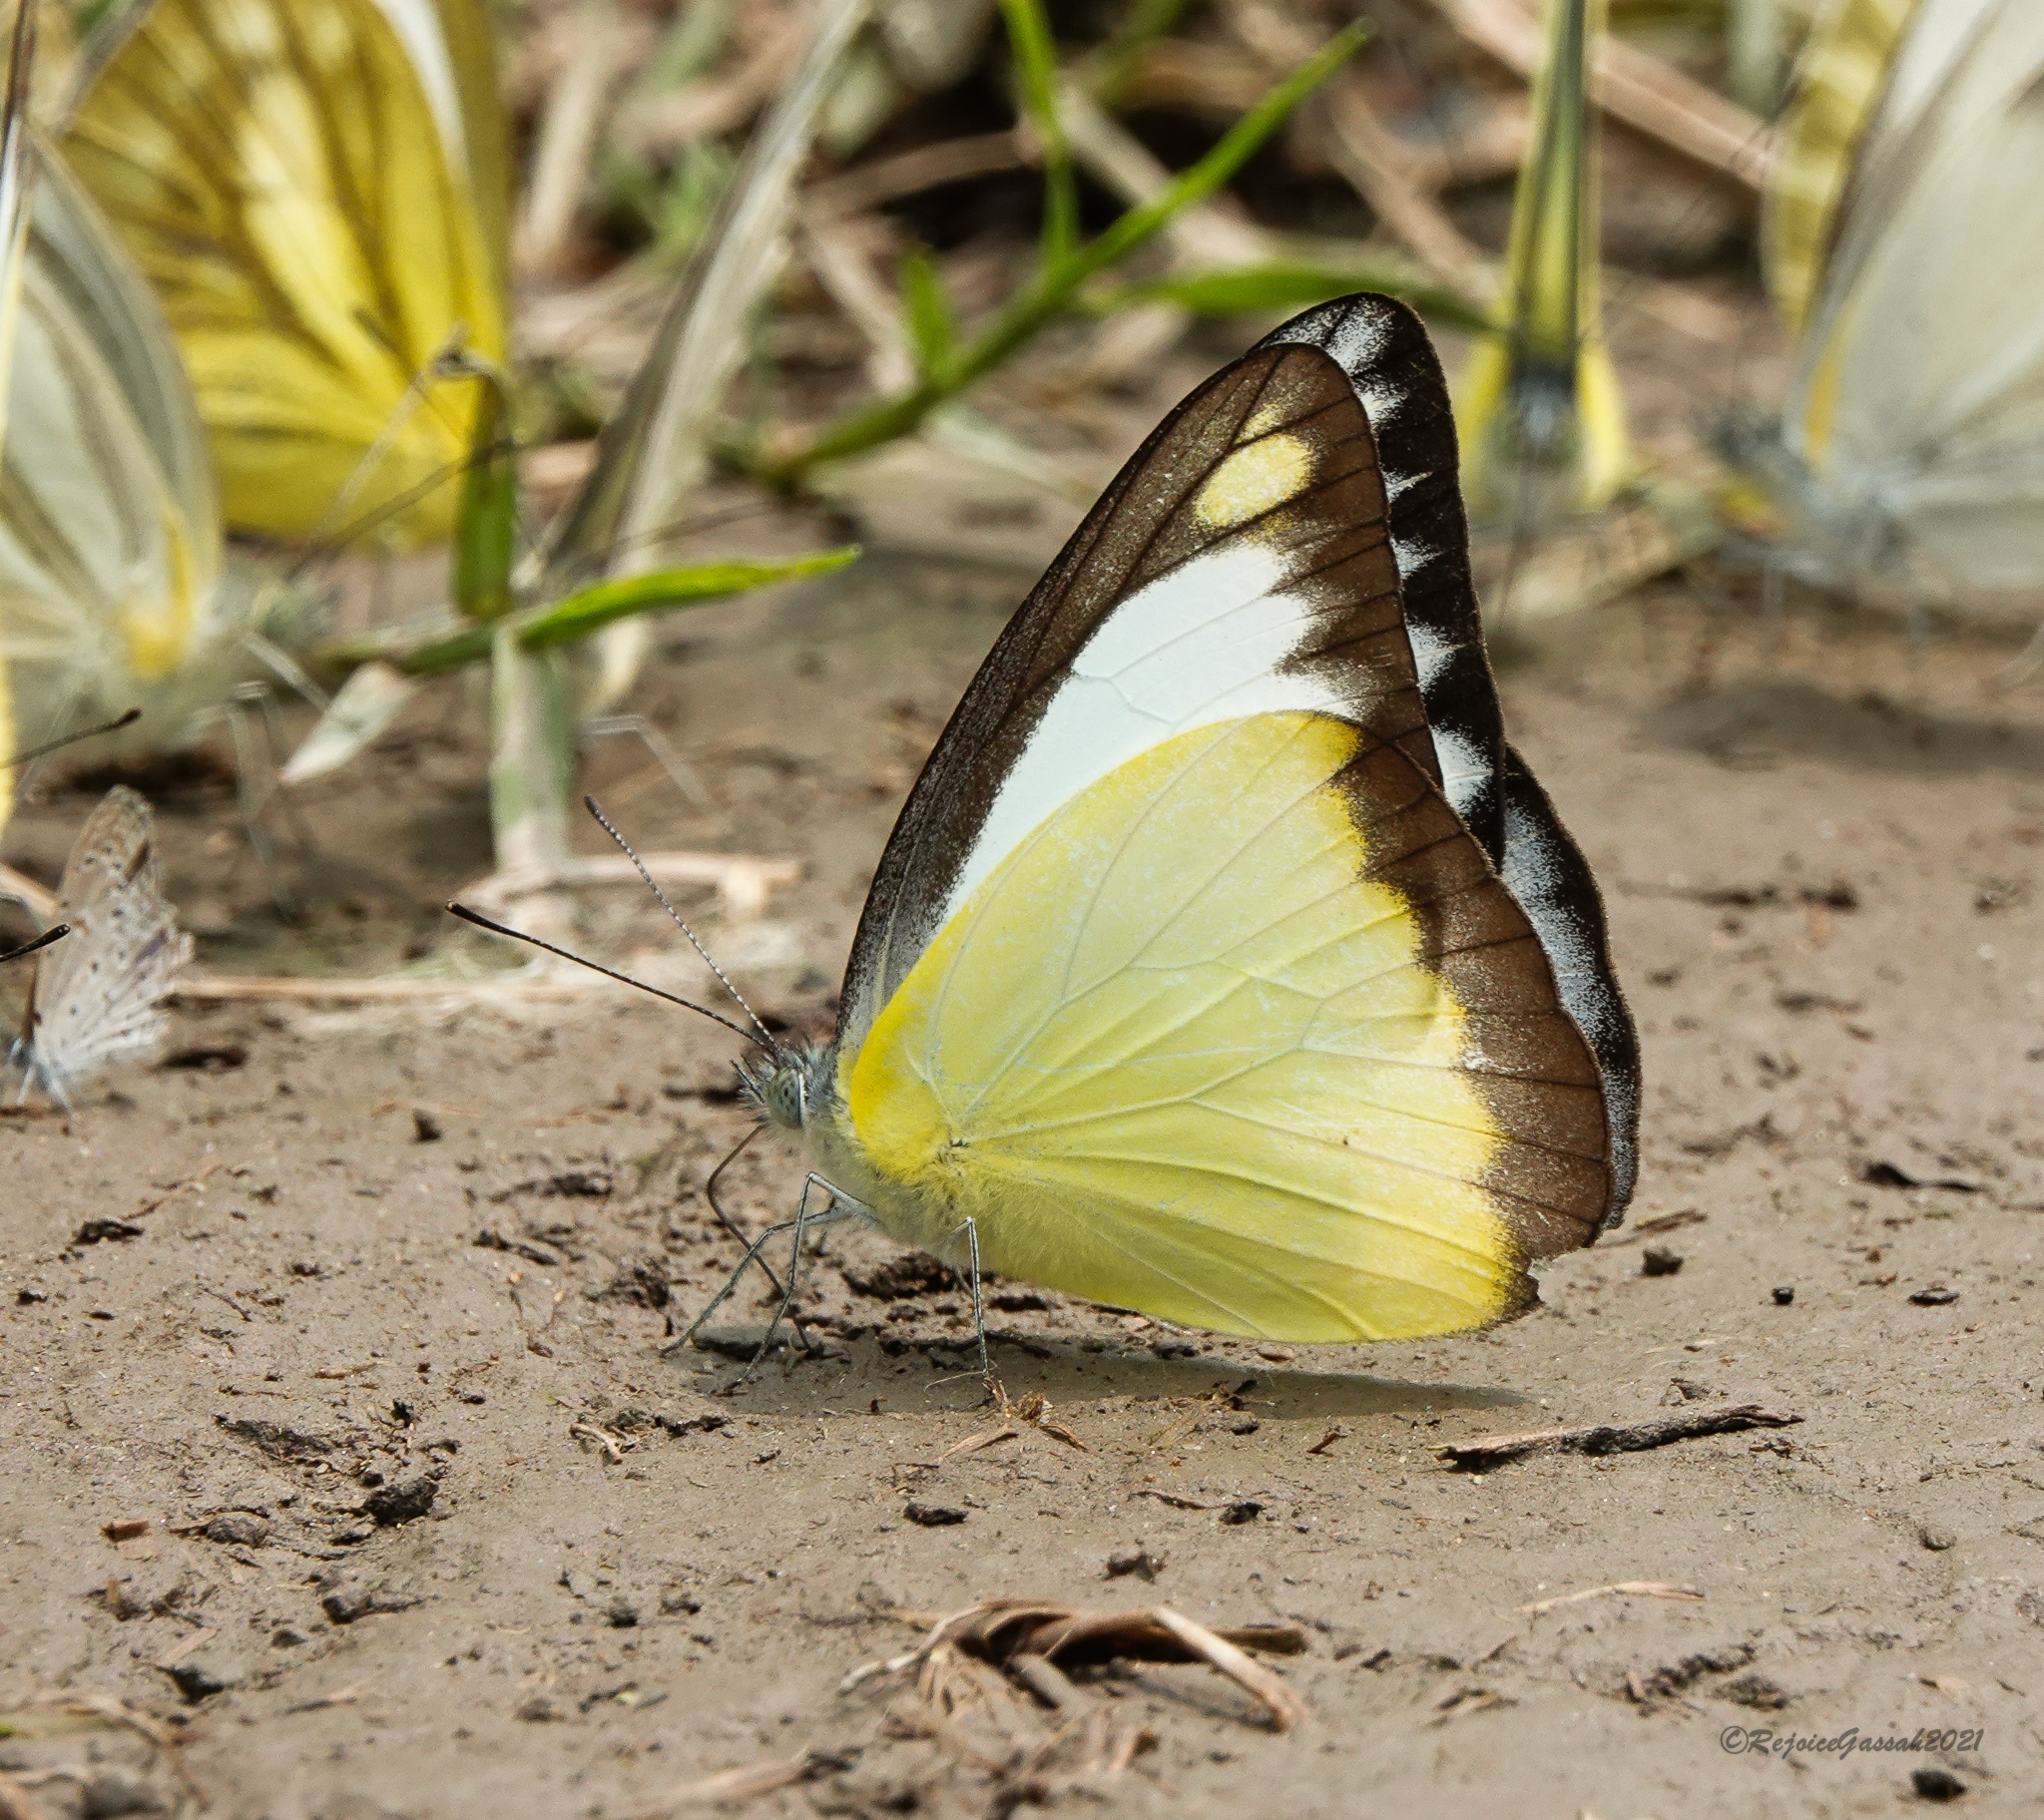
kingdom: Animalia
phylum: Arthropoda
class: Insecta
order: Lepidoptera
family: Pieridae
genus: Appias
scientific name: Appias lyncida
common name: Chocolate albatross
